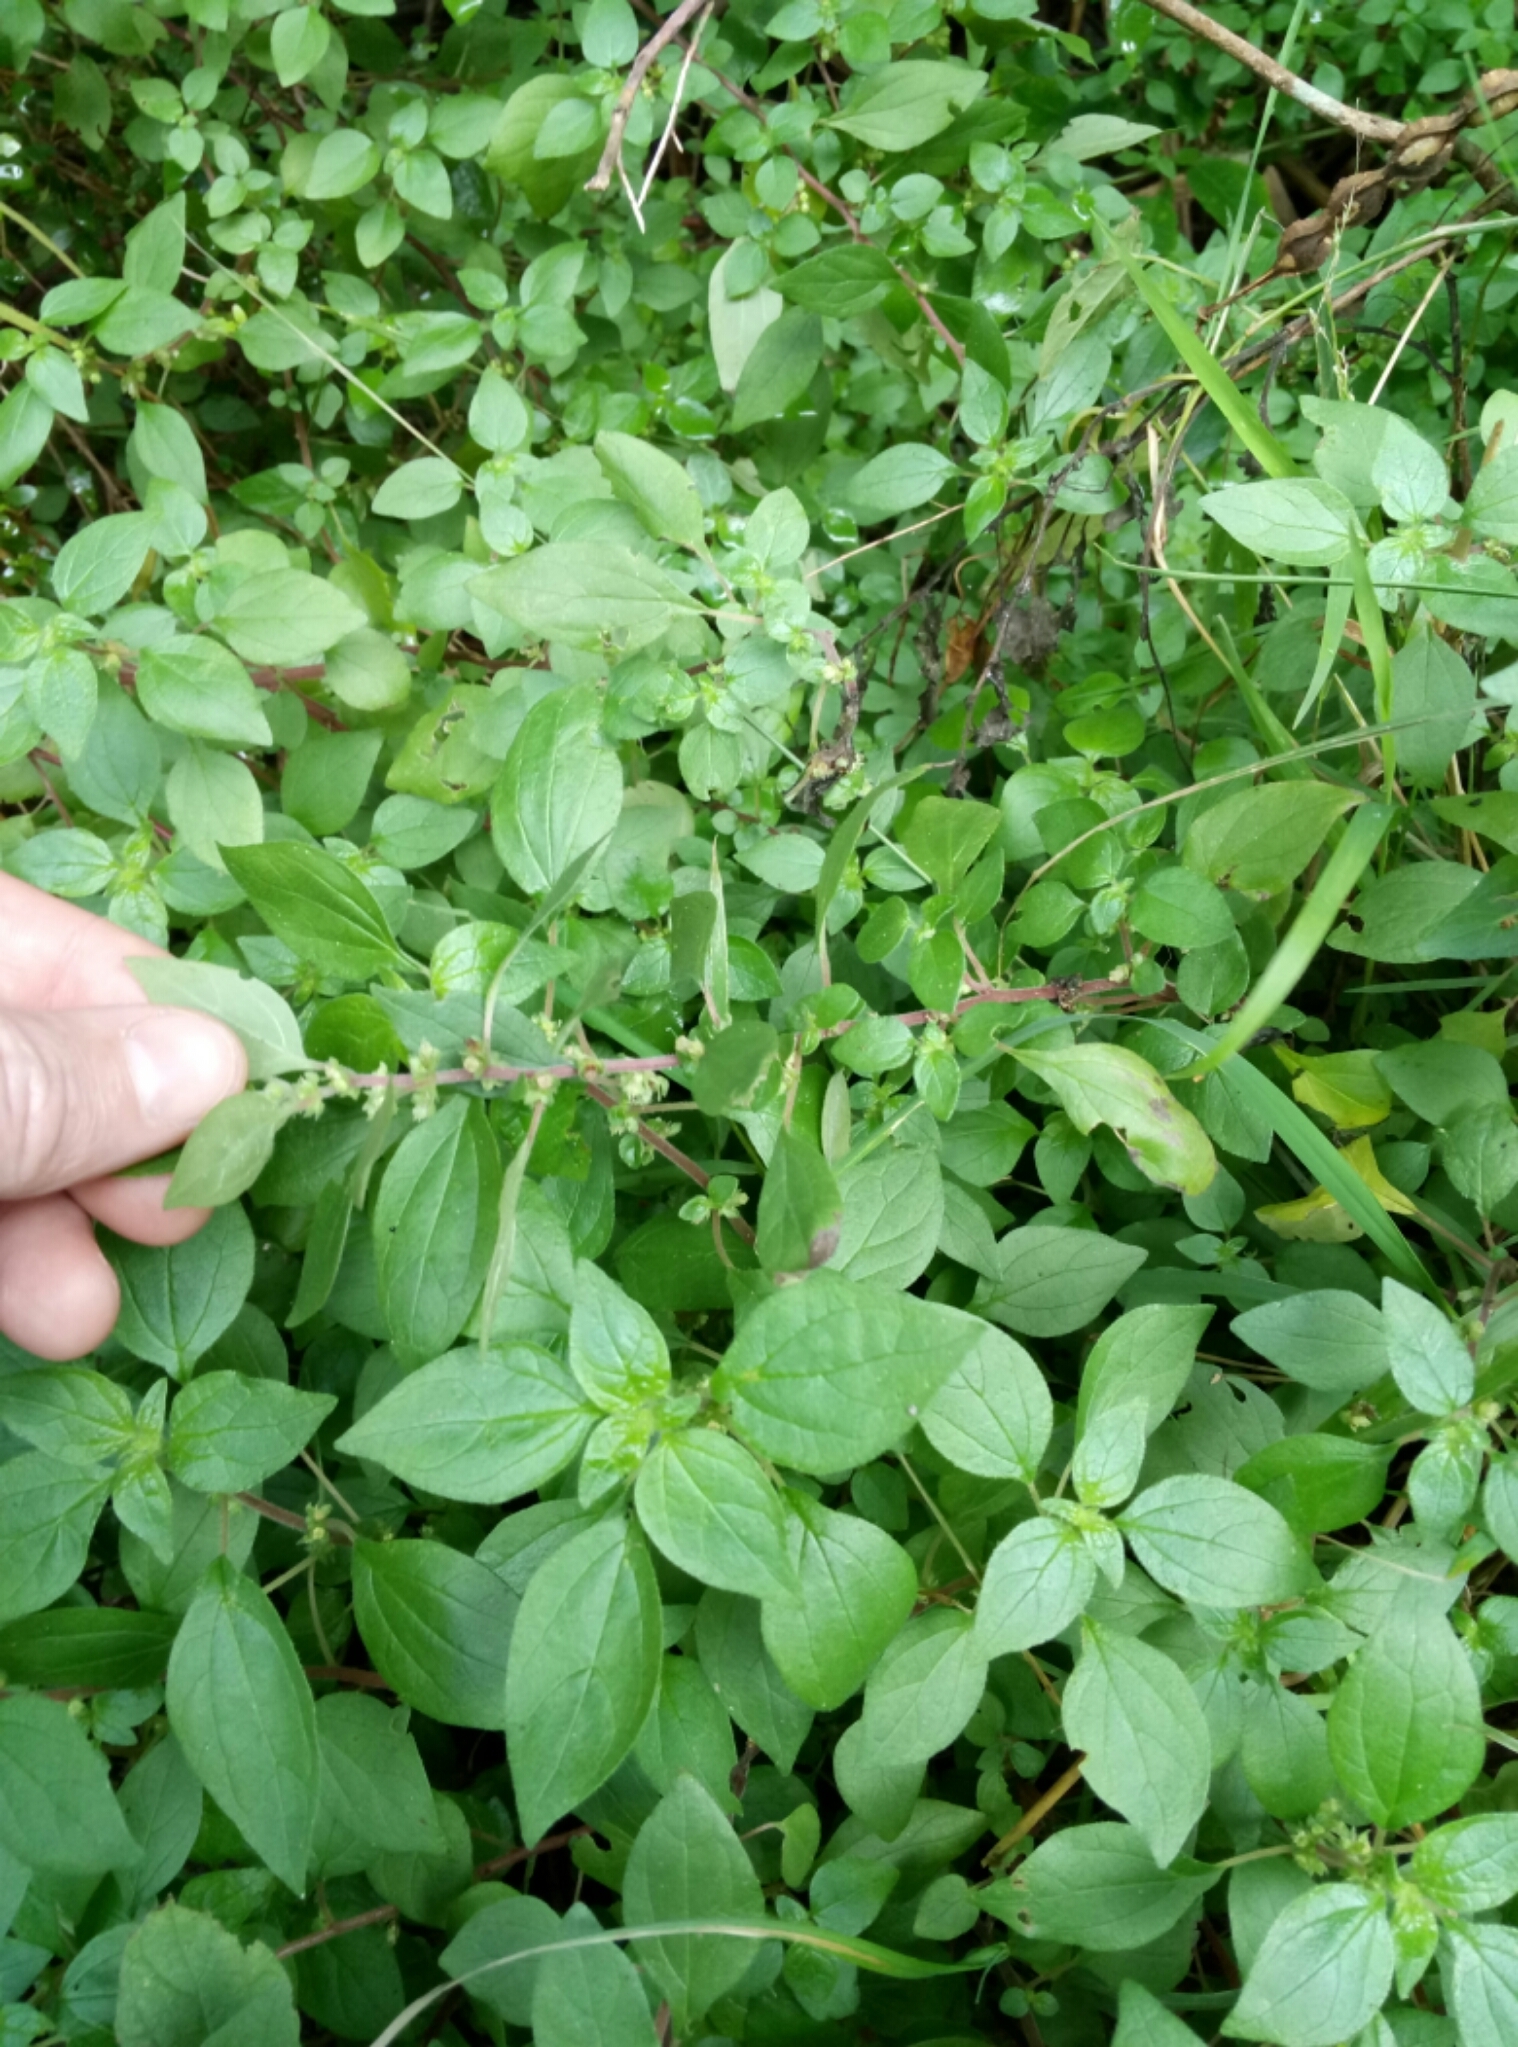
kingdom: Plantae
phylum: Tracheophyta
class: Magnoliopsida
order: Rosales
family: Urticaceae
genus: Parietaria
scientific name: Parietaria judaica
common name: Pellitory-of-the-wall
